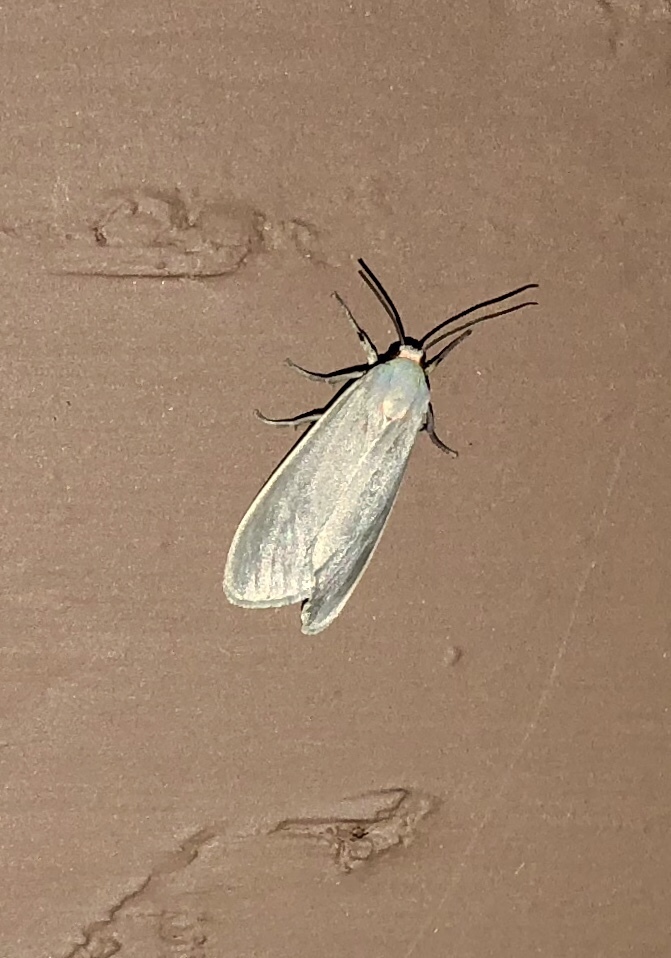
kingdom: Animalia
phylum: Arthropoda
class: Insecta
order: Lepidoptera
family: Erebidae
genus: Pygarctia
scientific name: Pygarctia murina
